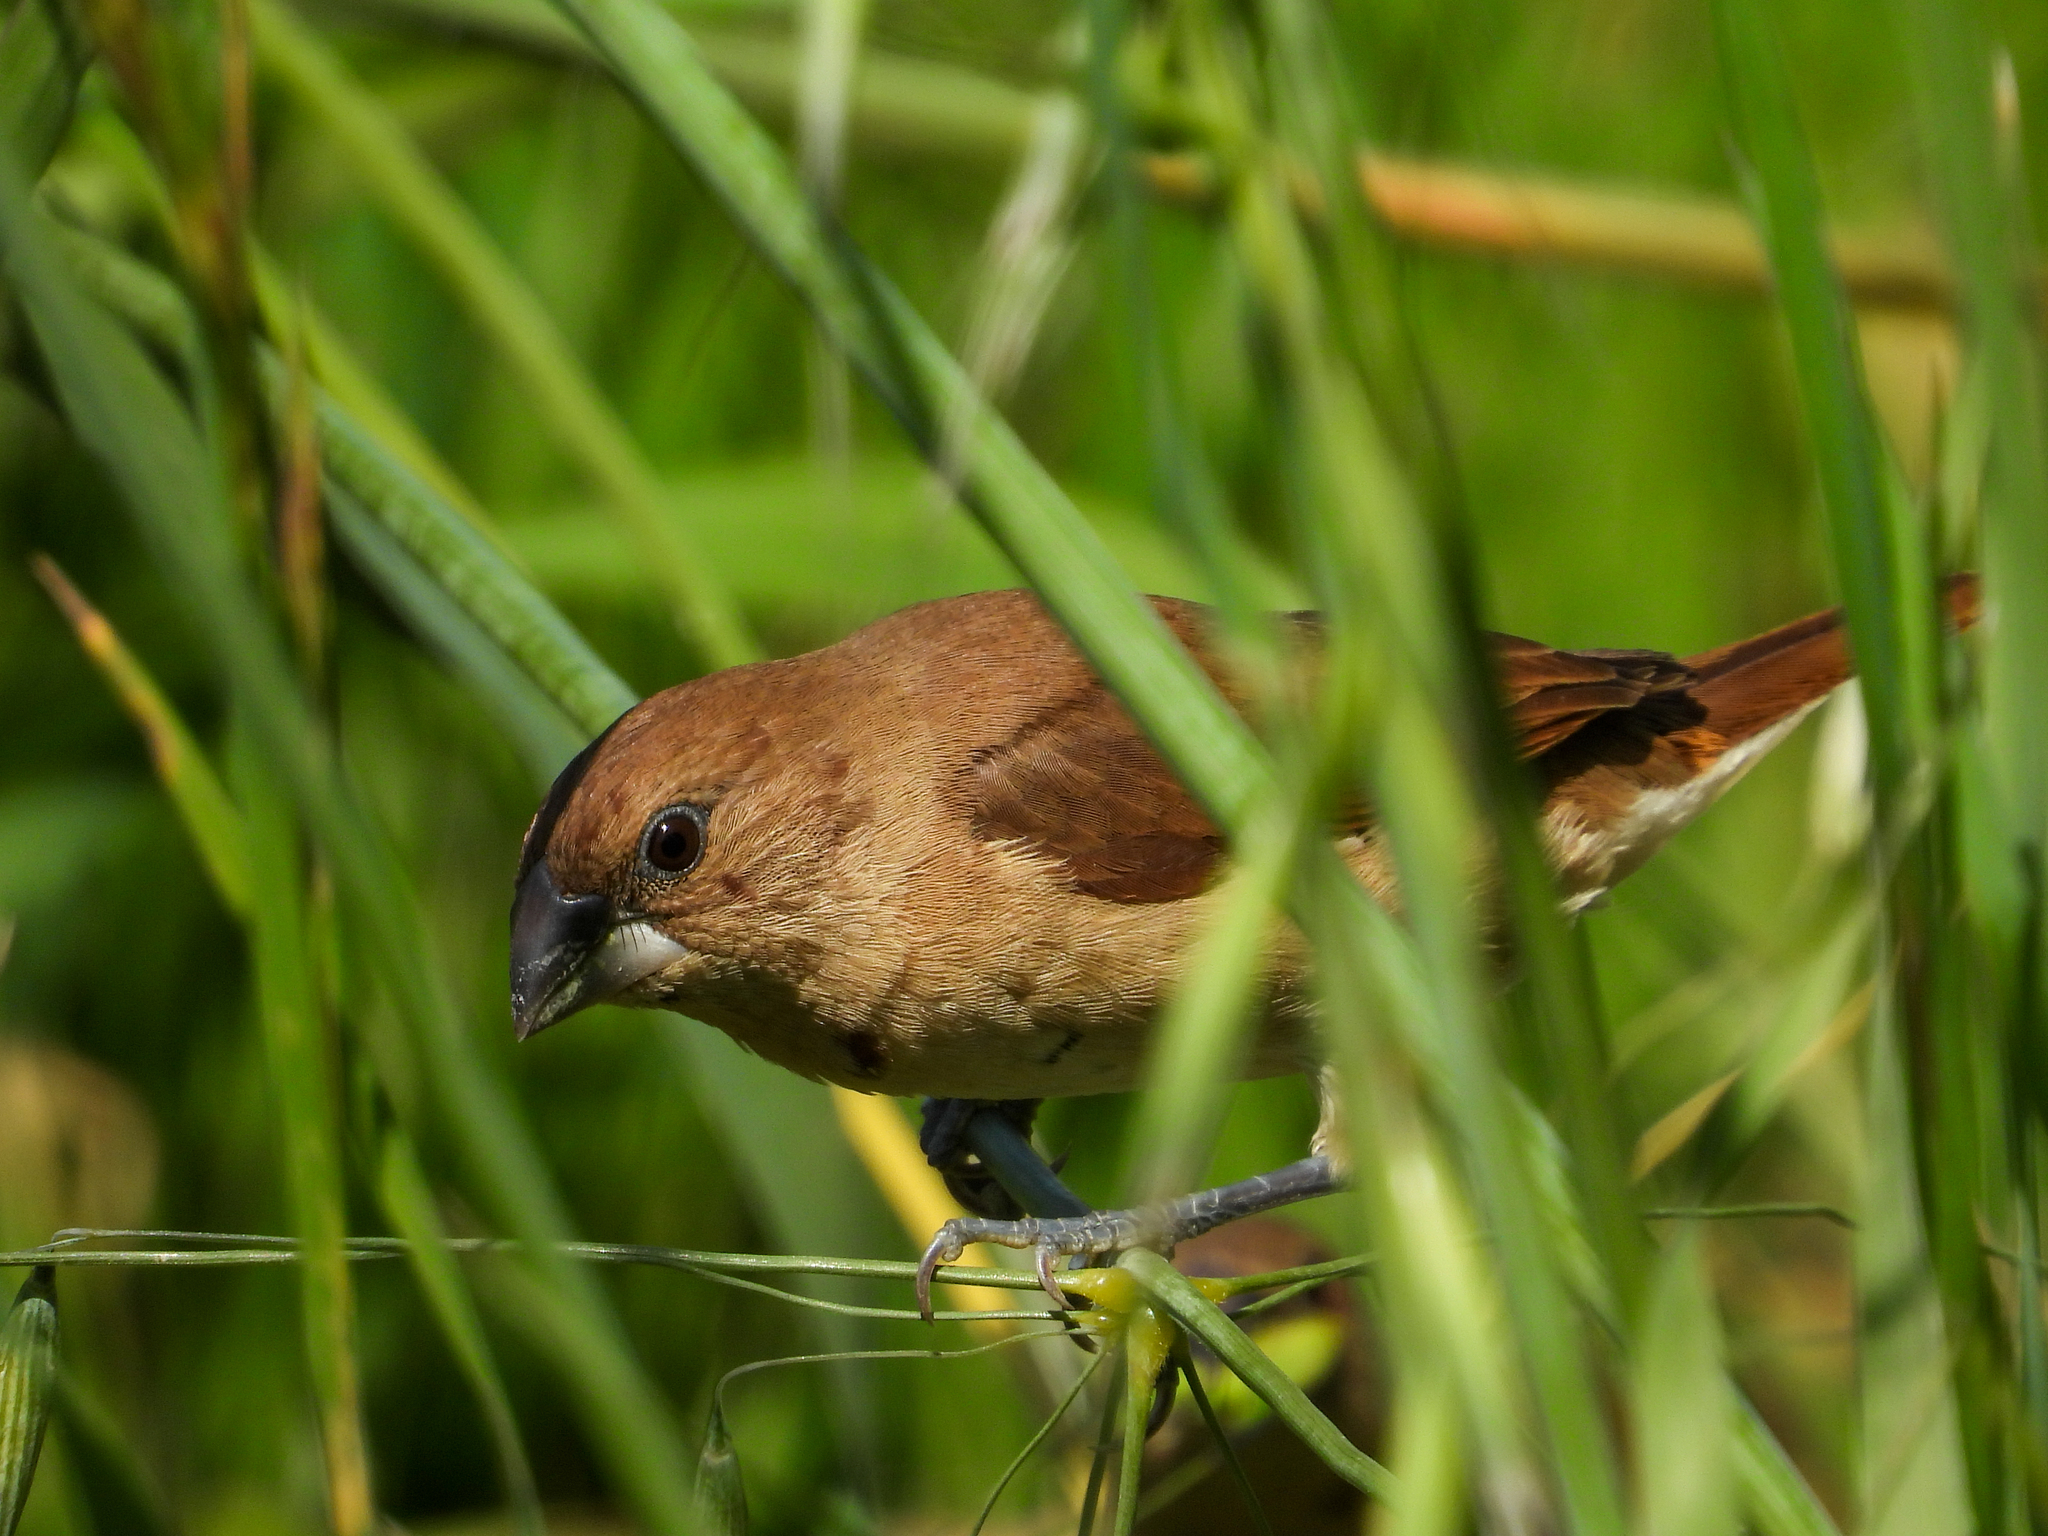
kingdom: Animalia
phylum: Chordata
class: Aves
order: Passeriformes
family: Estrildidae
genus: Lonchura
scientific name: Lonchura punctulata
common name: Scaly-breasted munia
